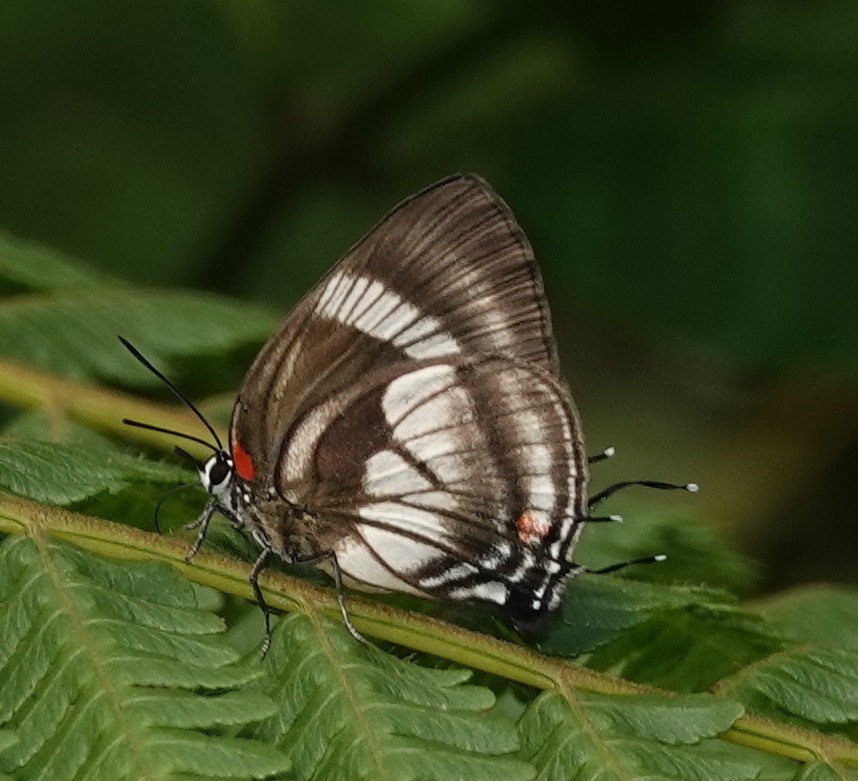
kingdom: Animalia
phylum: Arthropoda
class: Insecta
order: Lepidoptera
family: Lycaenidae
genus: Panthiades
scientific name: Panthiades pelion
